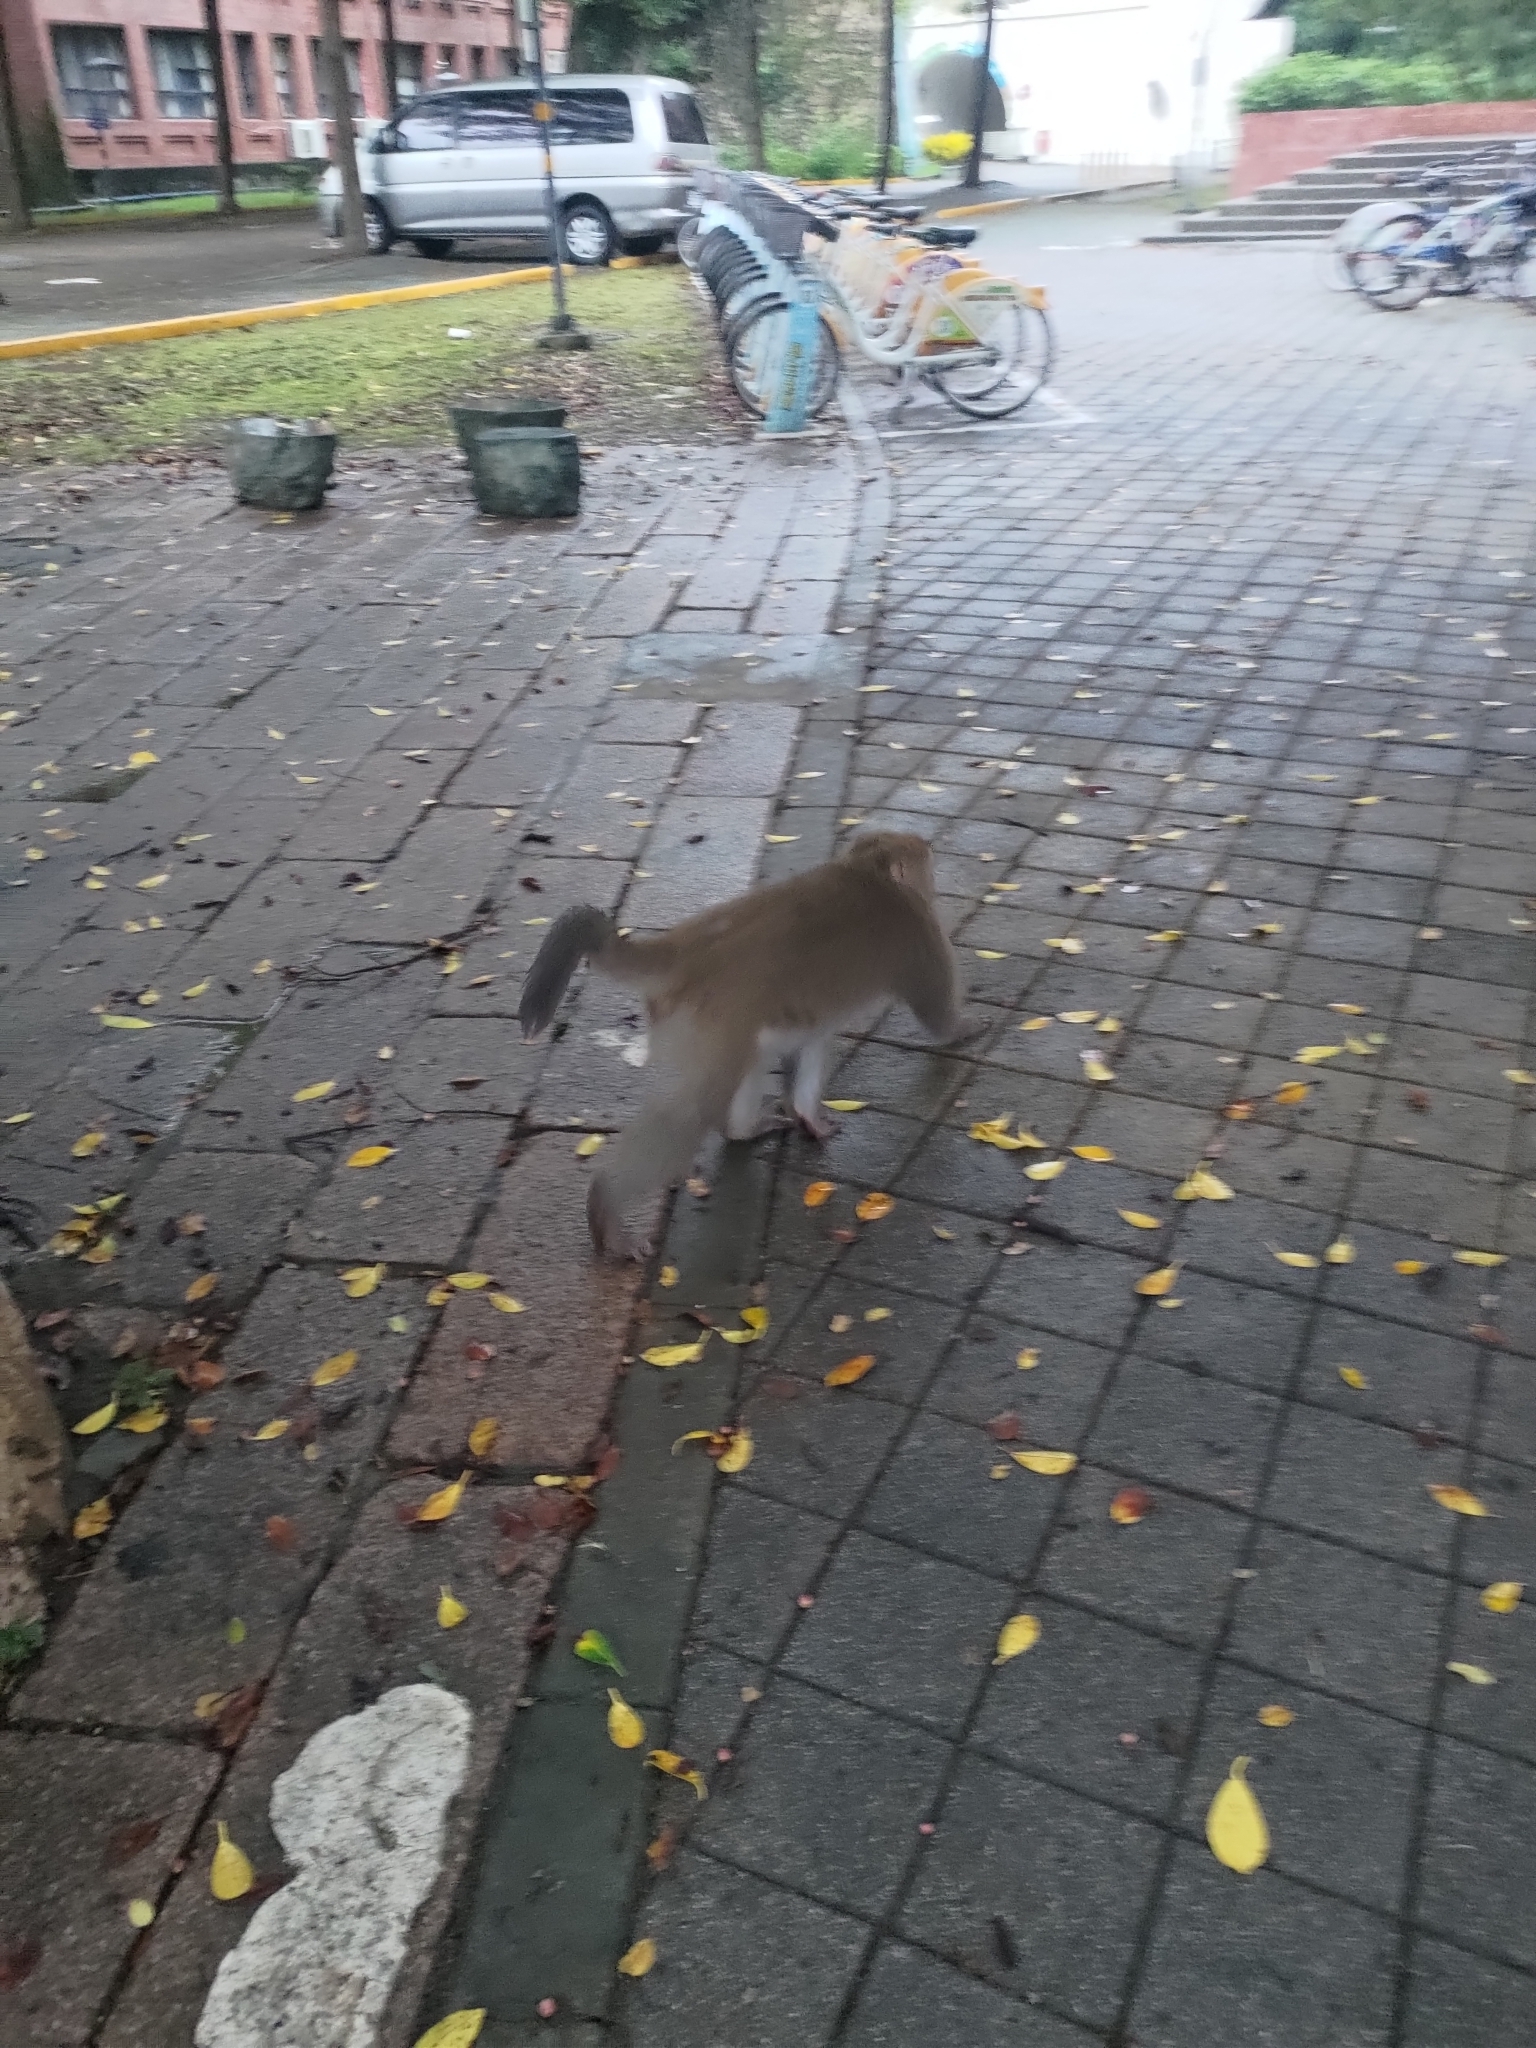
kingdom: Animalia
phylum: Chordata
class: Mammalia
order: Primates
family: Cercopithecidae
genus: Macaca
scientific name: Macaca cyclopis
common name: Formosan rock macaque
